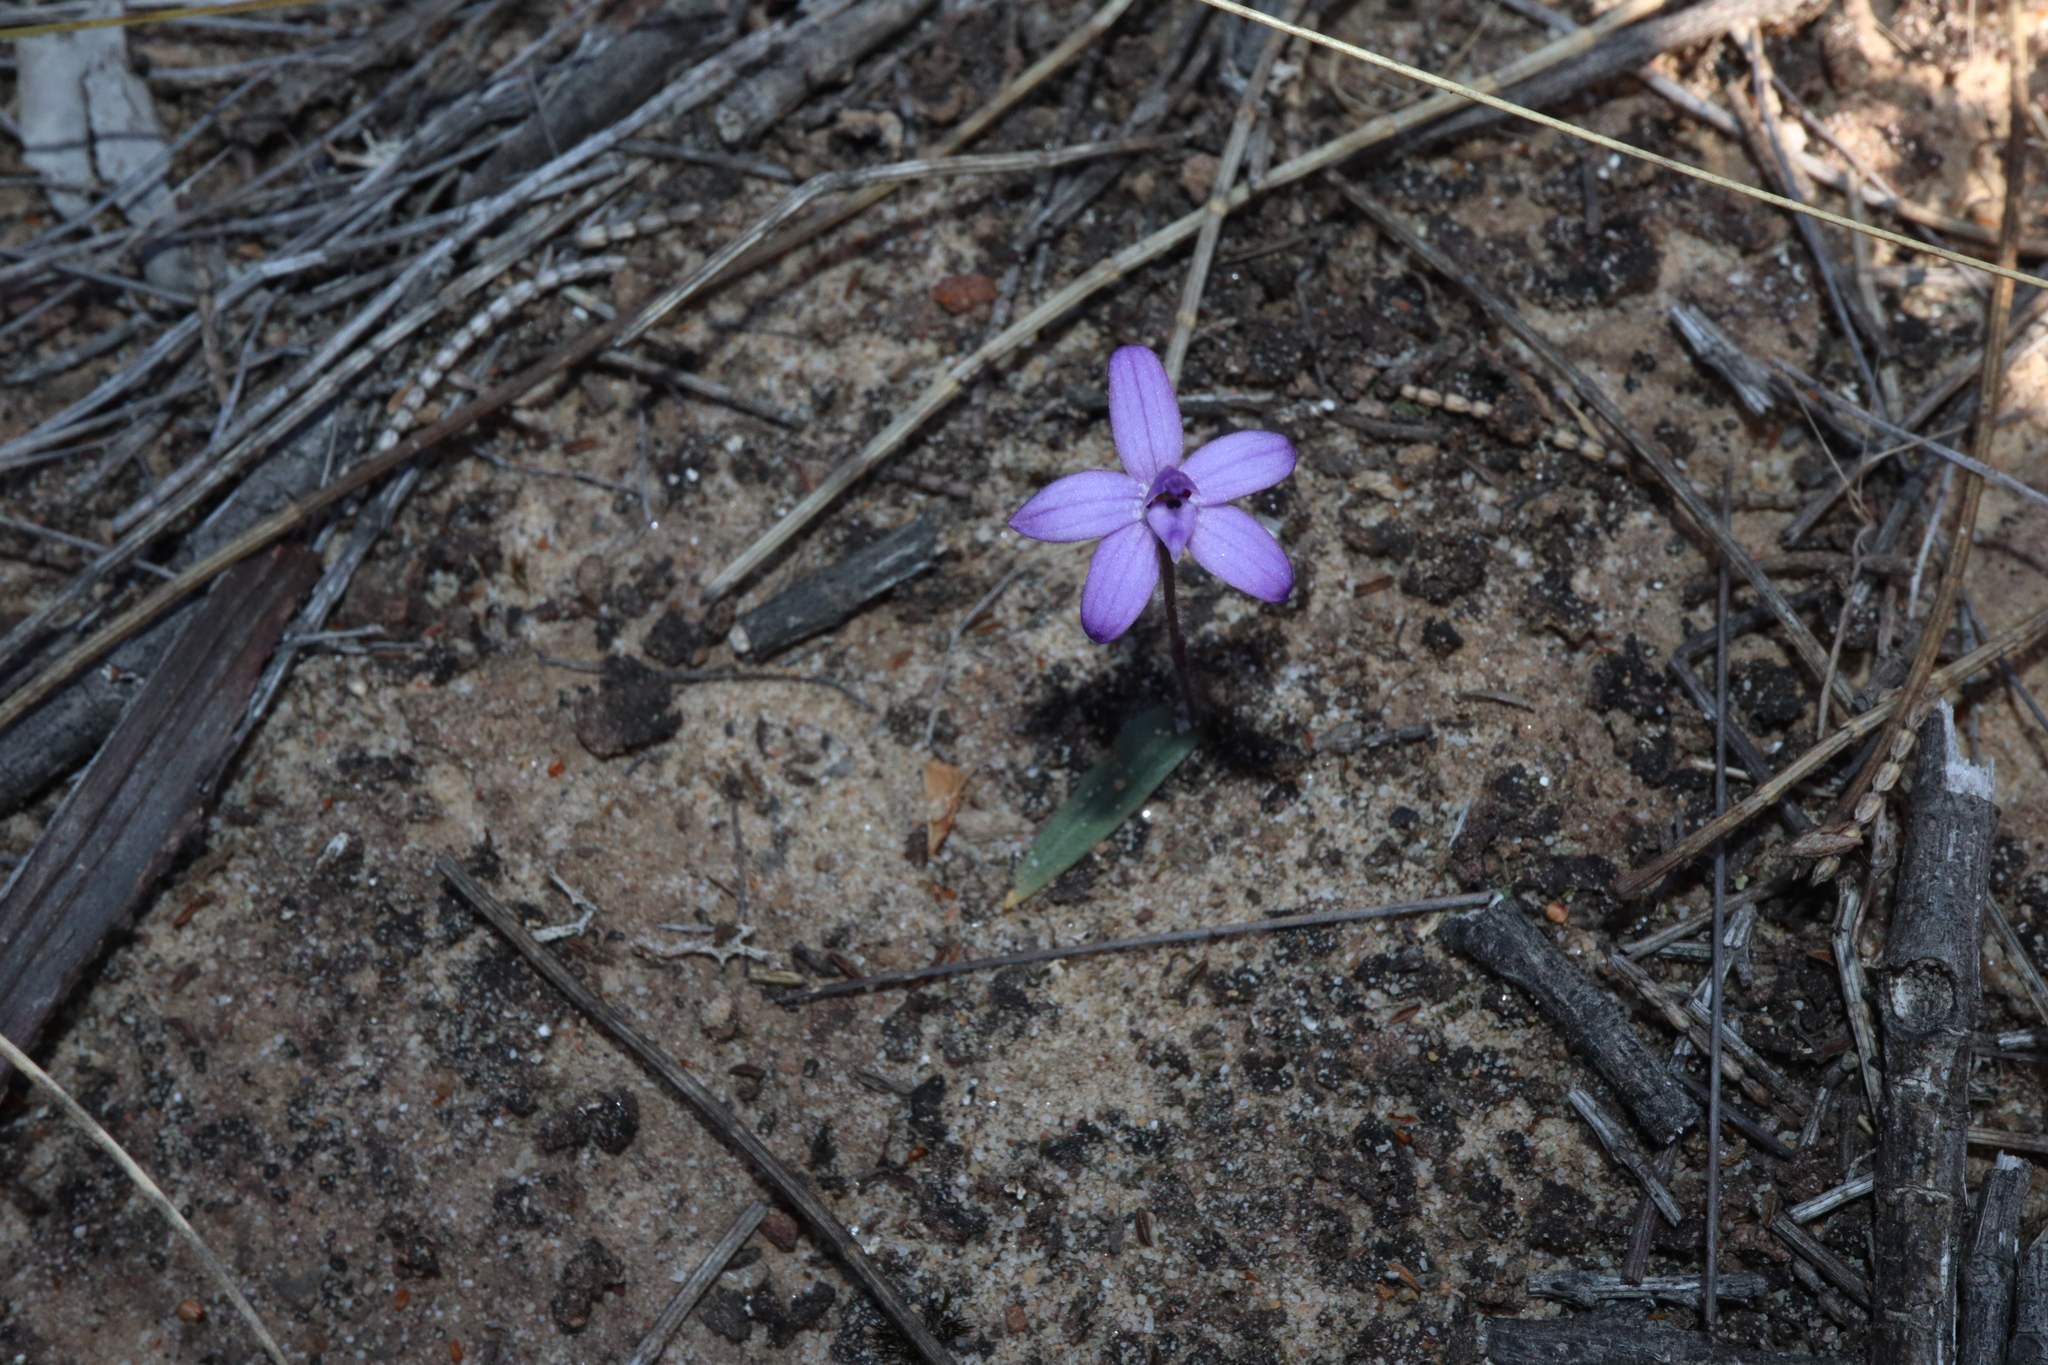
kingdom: Plantae
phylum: Tracheophyta
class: Liliopsida
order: Asparagales
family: Orchidaceae
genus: Caladenia
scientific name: Caladenia minorata
